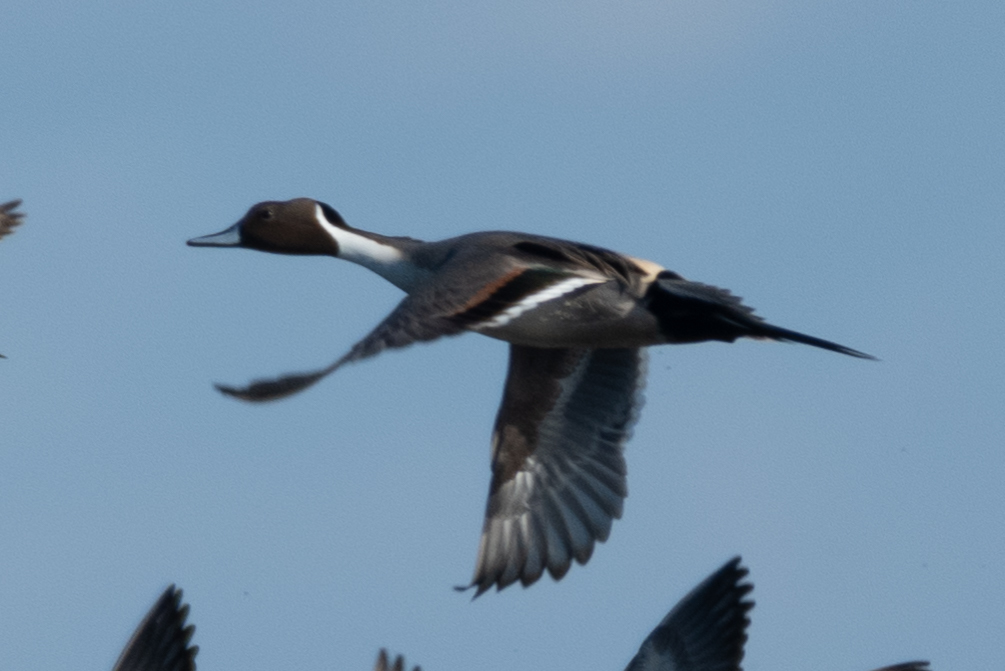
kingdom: Animalia
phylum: Chordata
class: Aves
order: Anseriformes
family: Anatidae
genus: Anas
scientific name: Anas acuta
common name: Northern pintail
